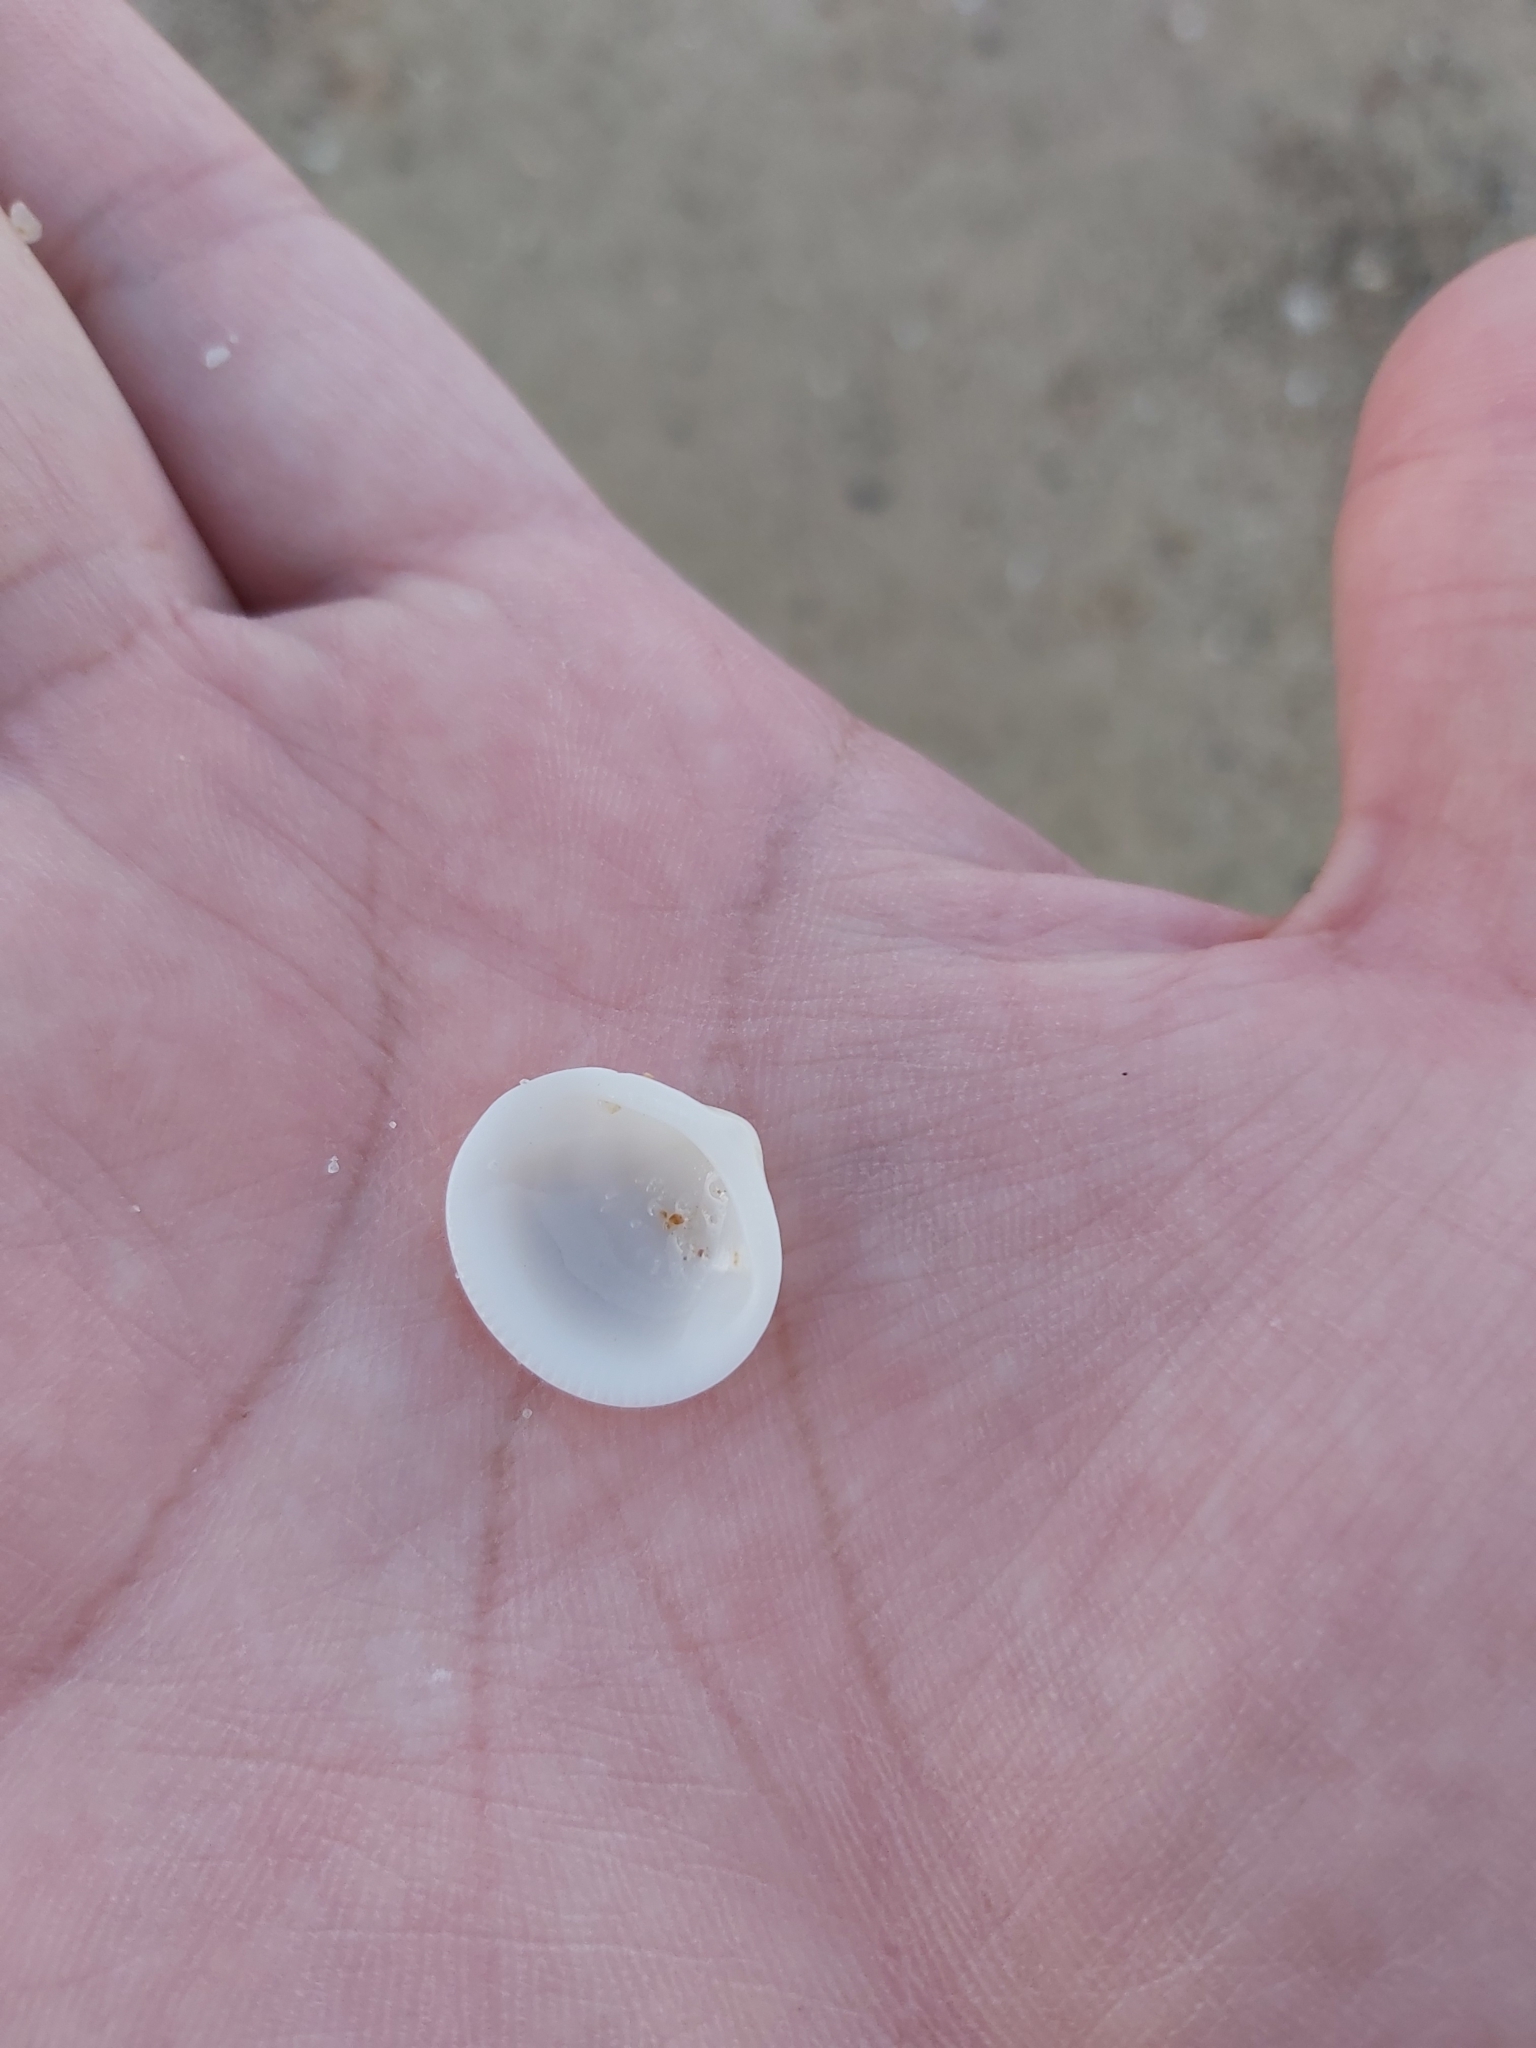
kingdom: Animalia
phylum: Mollusca
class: Bivalvia
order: Arcida
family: Glycymerididae
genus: Glycymeris
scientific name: Glycymeris grayana
